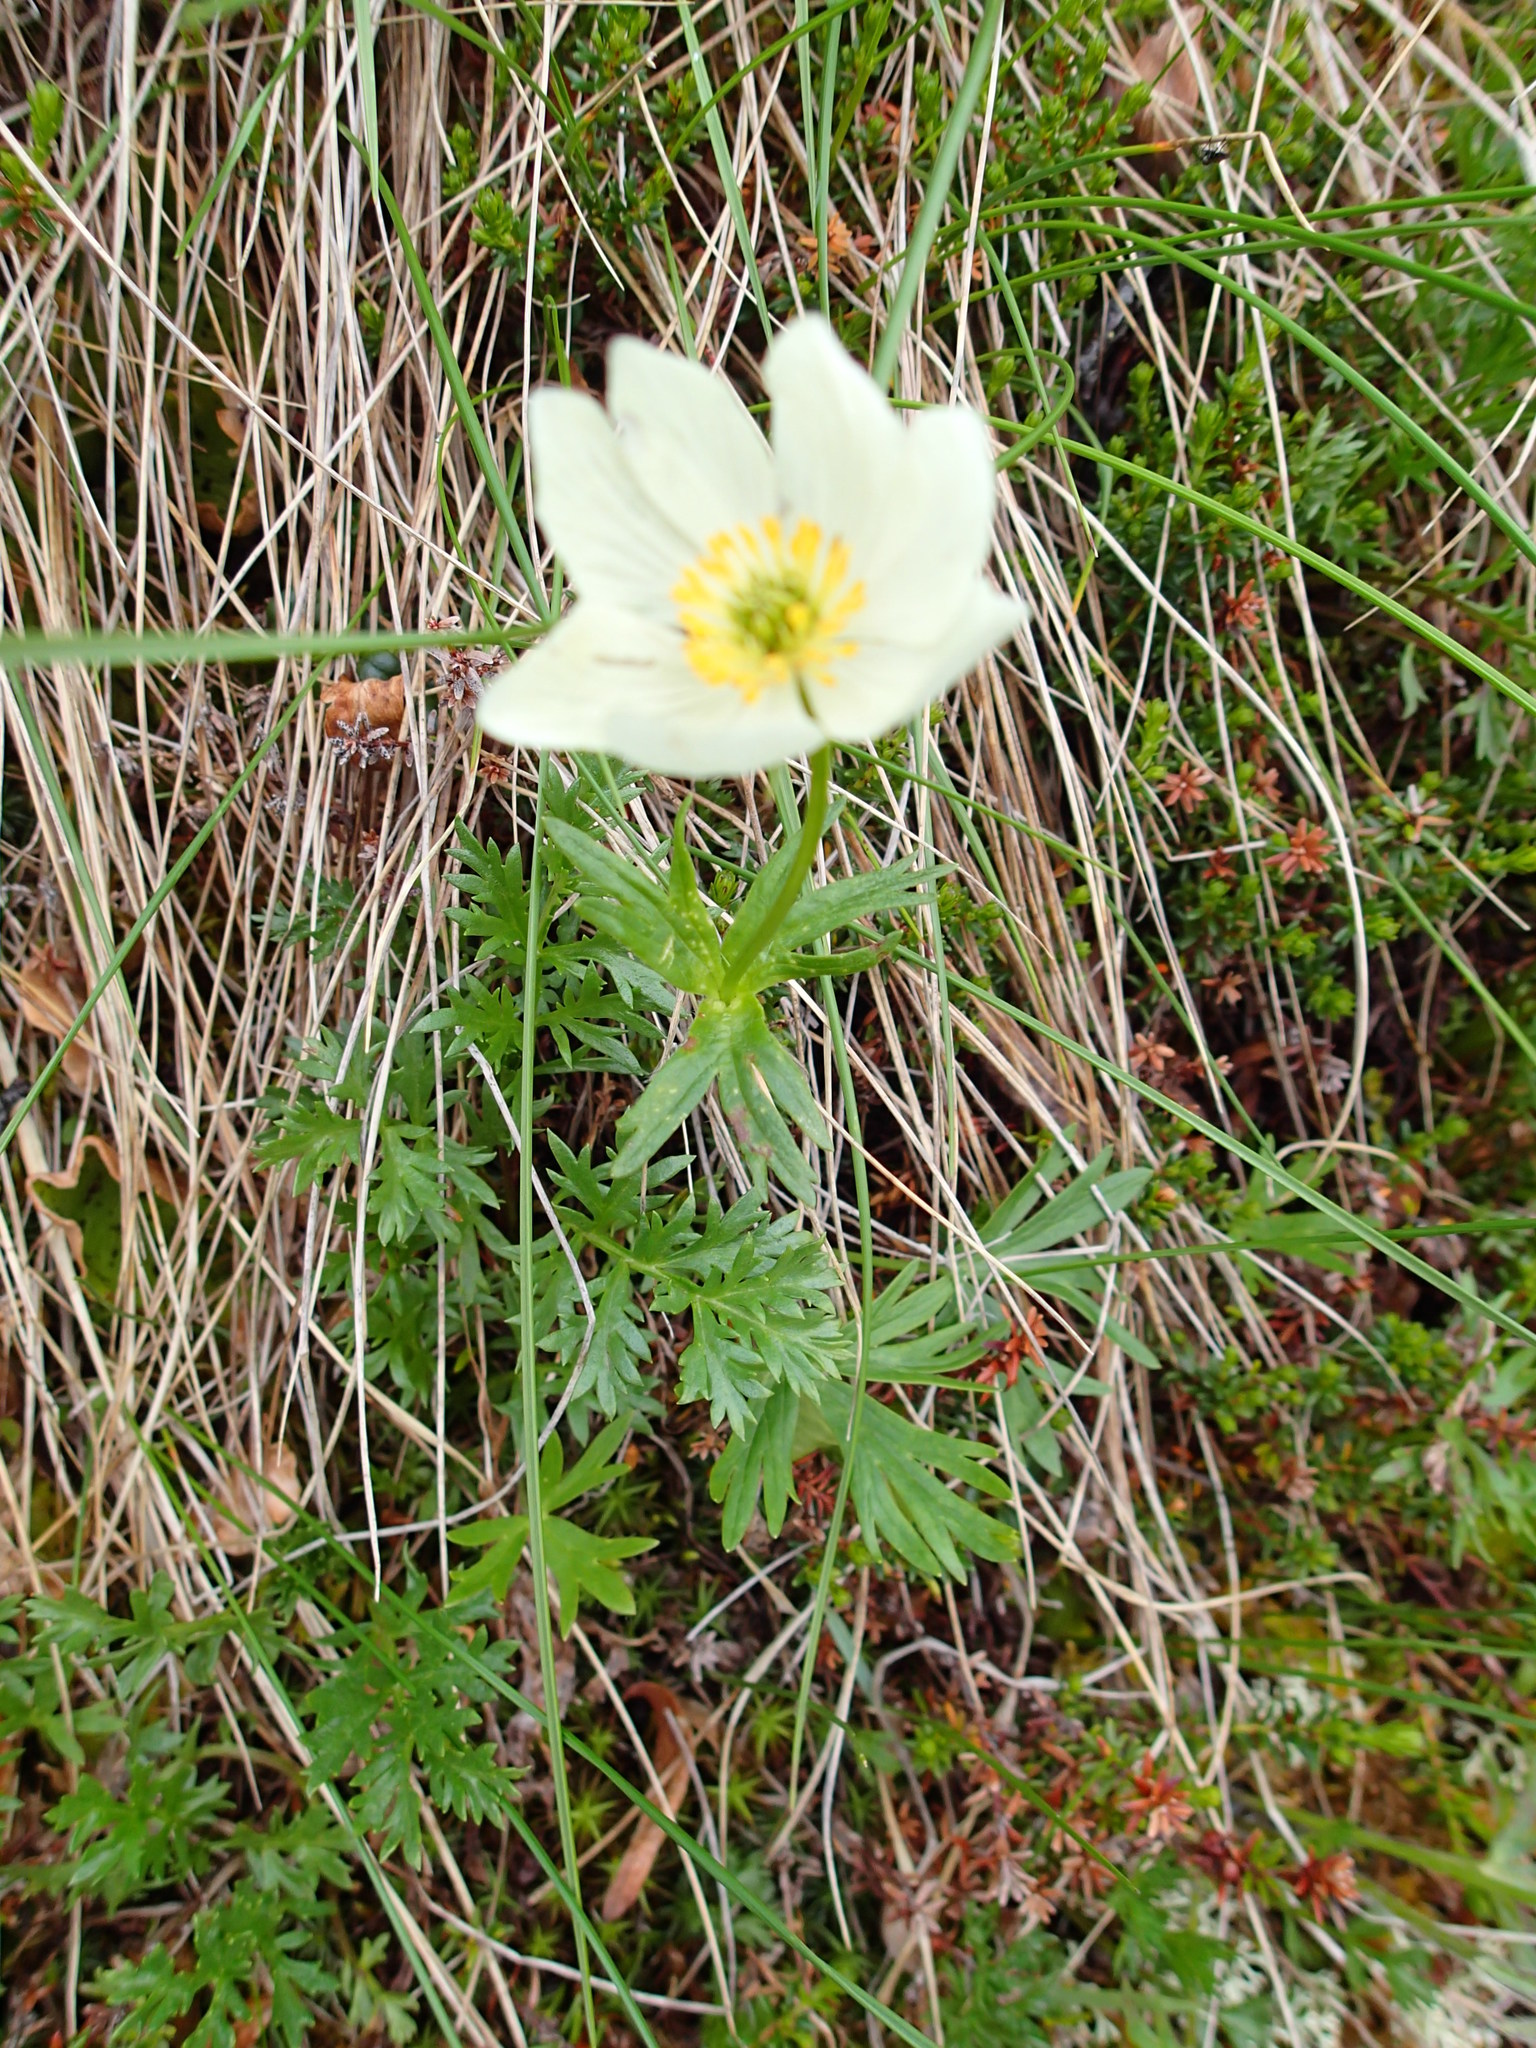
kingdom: Plantae
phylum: Tracheophyta
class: Magnoliopsida
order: Ranunculales
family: Ranunculaceae
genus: Anemonastrum
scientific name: Anemonastrum narcissiflorum
